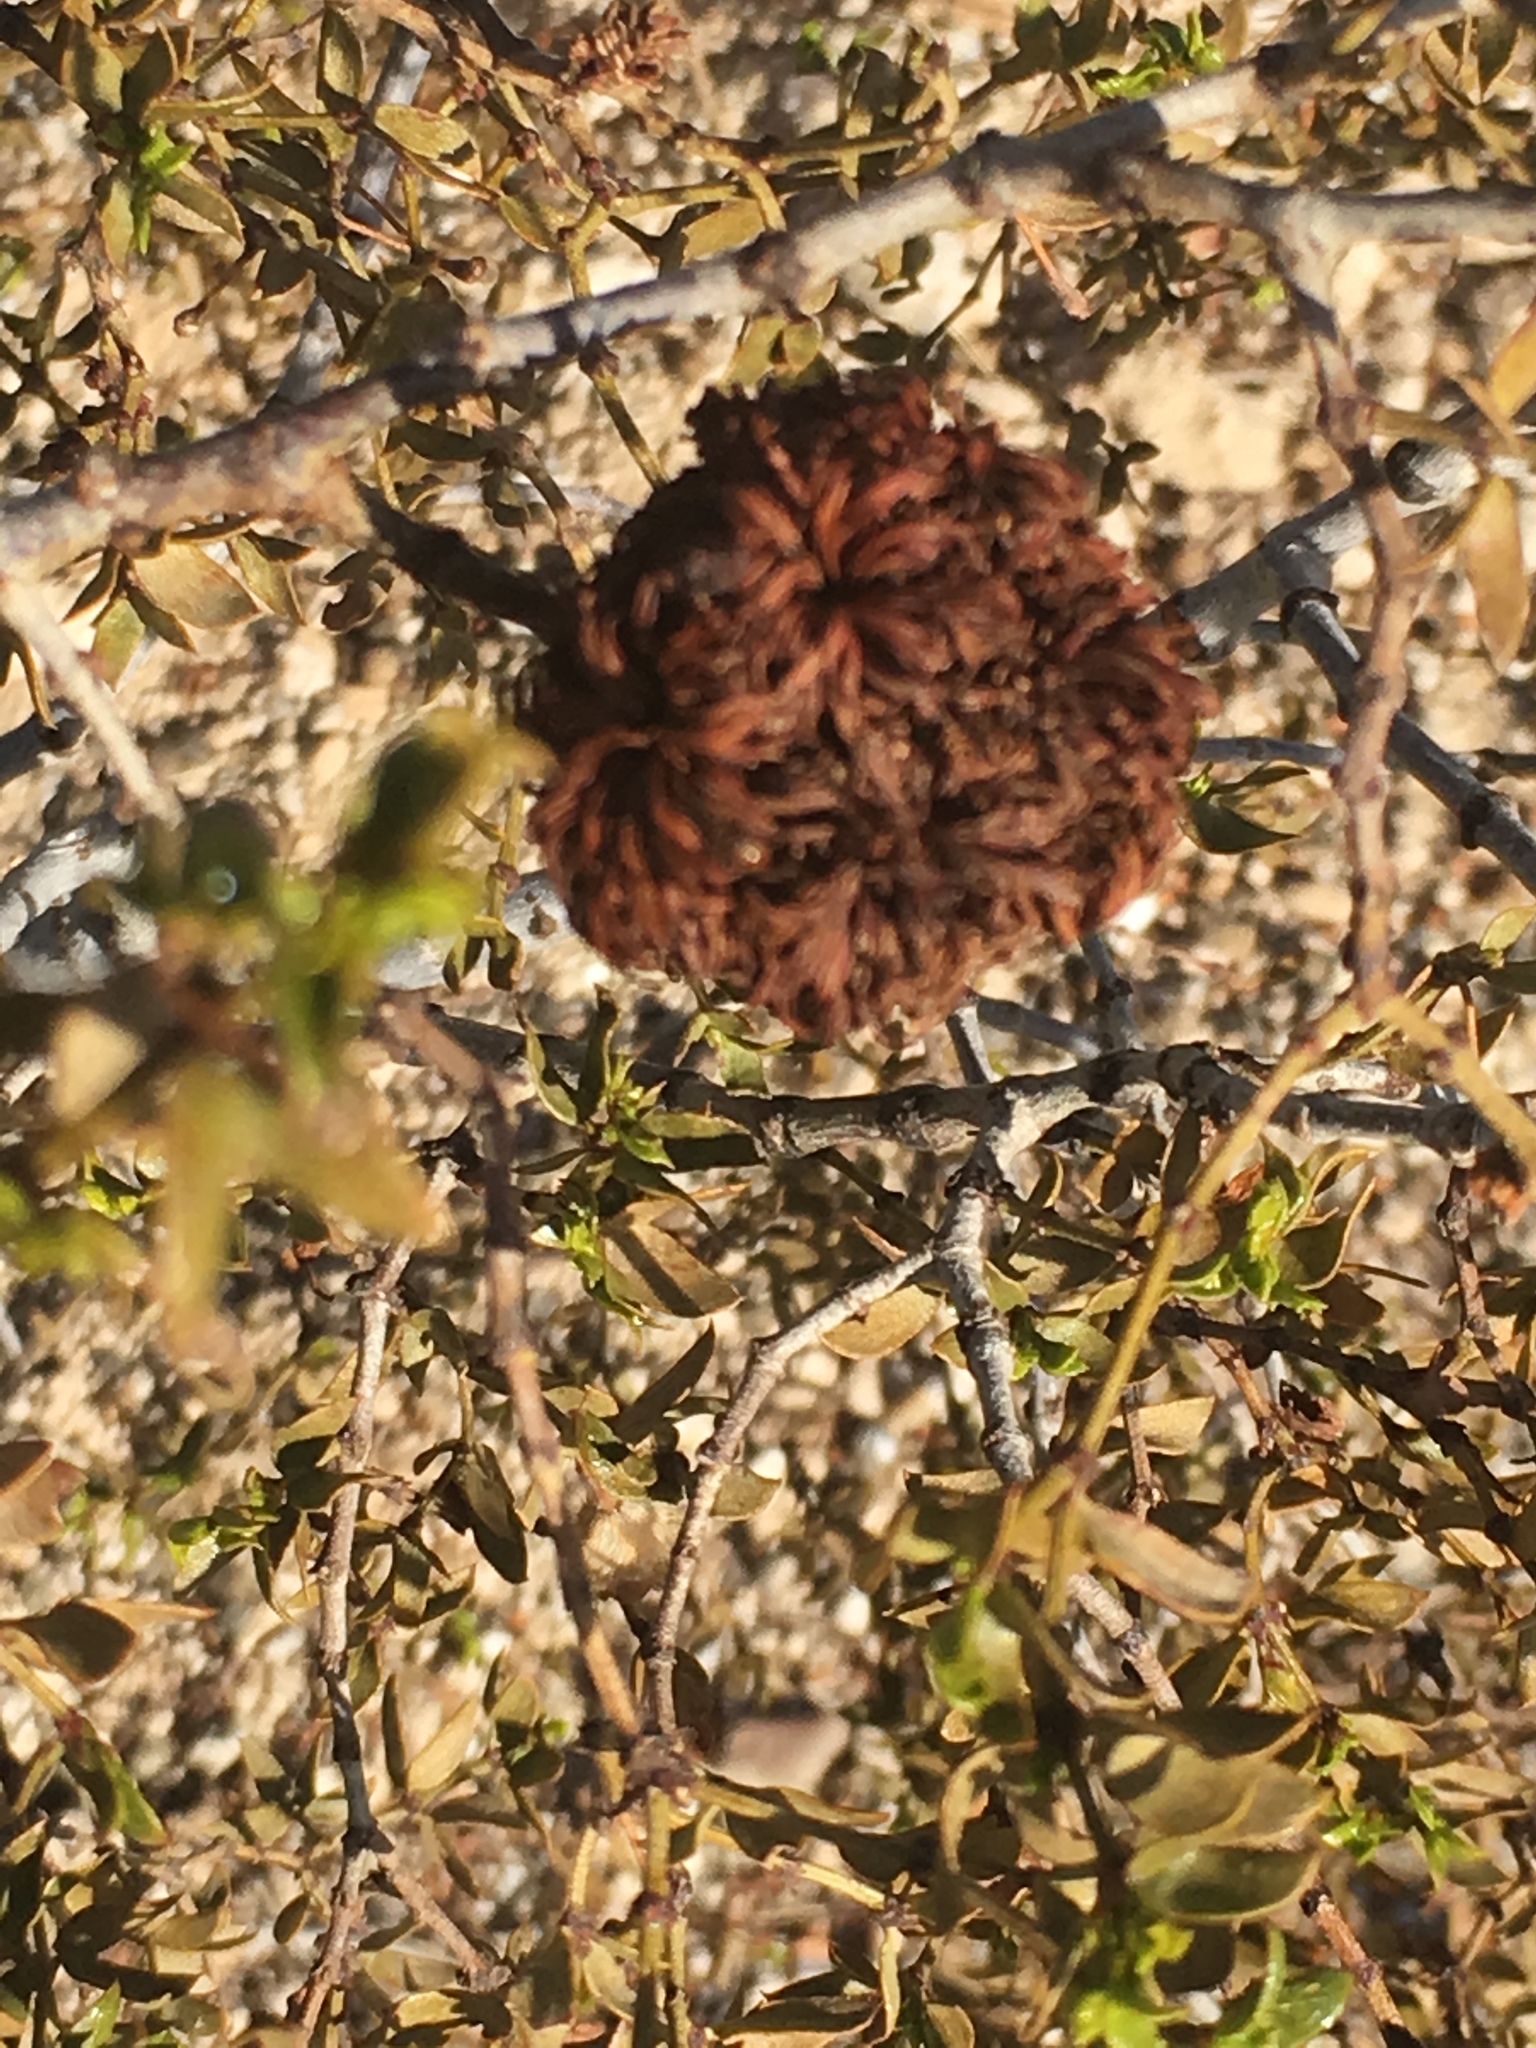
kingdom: Plantae
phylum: Tracheophyta
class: Magnoliopsida
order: Zygophyllales
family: Zygophyllaceae
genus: Larrea
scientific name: Larrea tridentata
